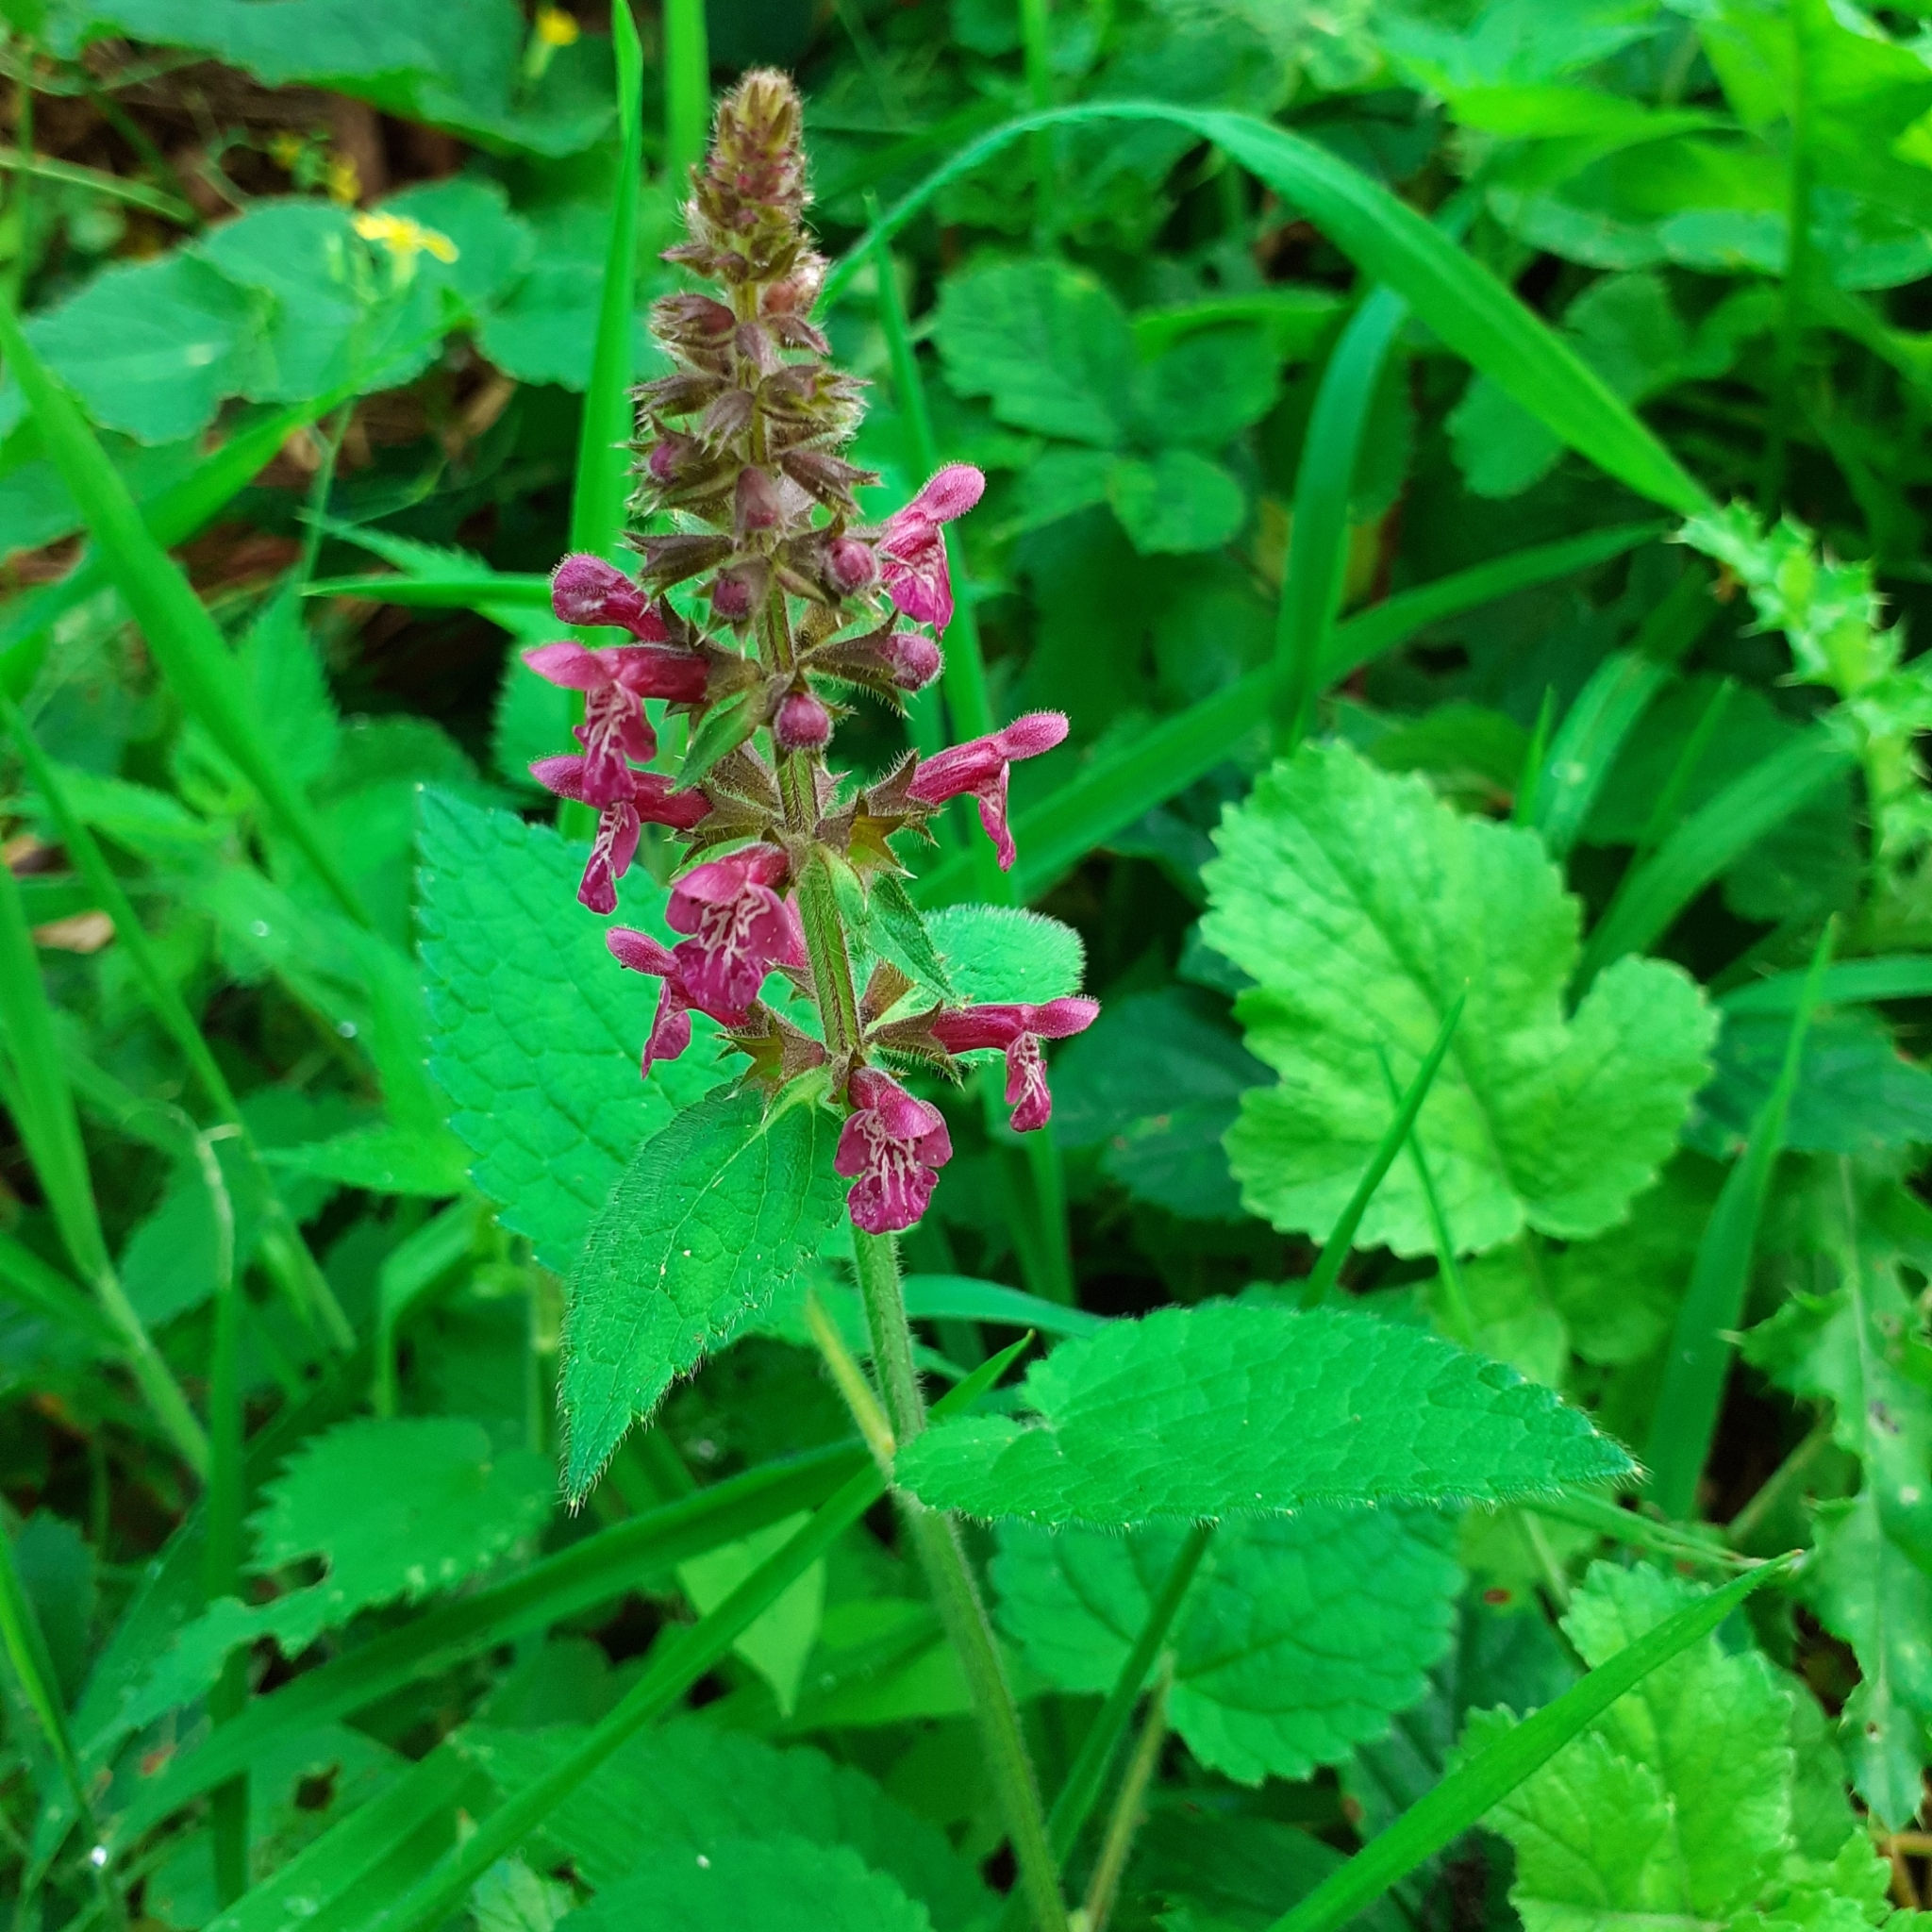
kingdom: Plantae
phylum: Tracheophyta
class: Magnoliopsida
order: Lamiales
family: Lamiaceae
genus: Stachys
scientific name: Stachys sylvatica
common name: Hedge woundwort
